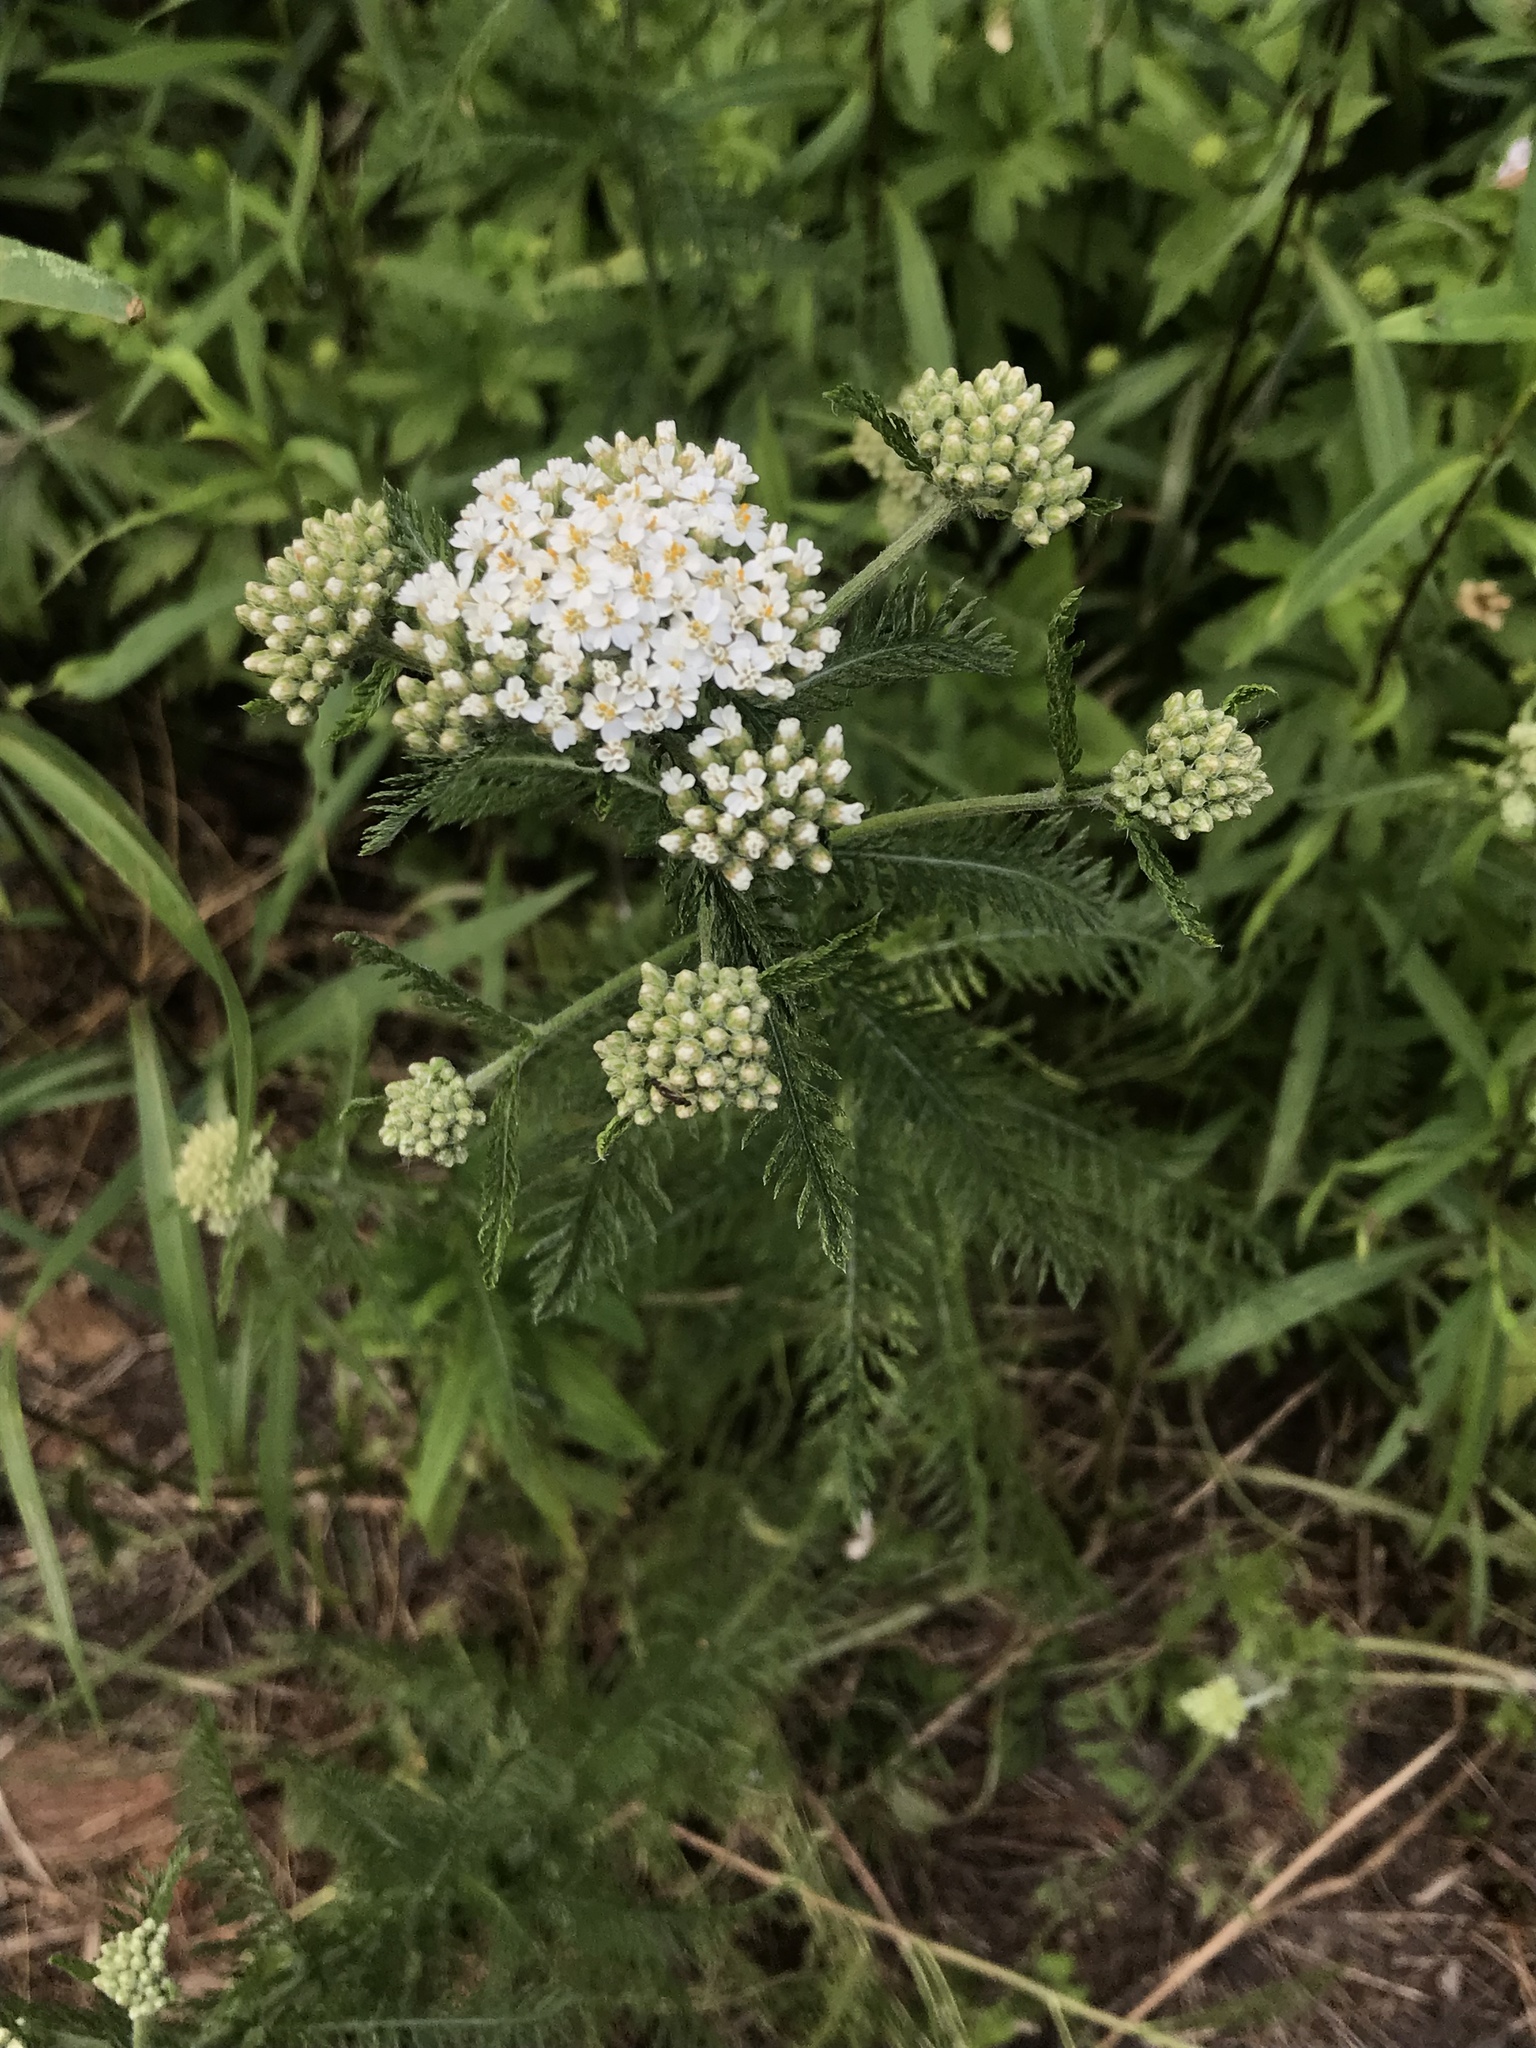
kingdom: Plantae
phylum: Tracheophyta
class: Magnoliopsida
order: Asterales
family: Asteraceae
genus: Achillea
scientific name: Achillea millefolium
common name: Yarrow
